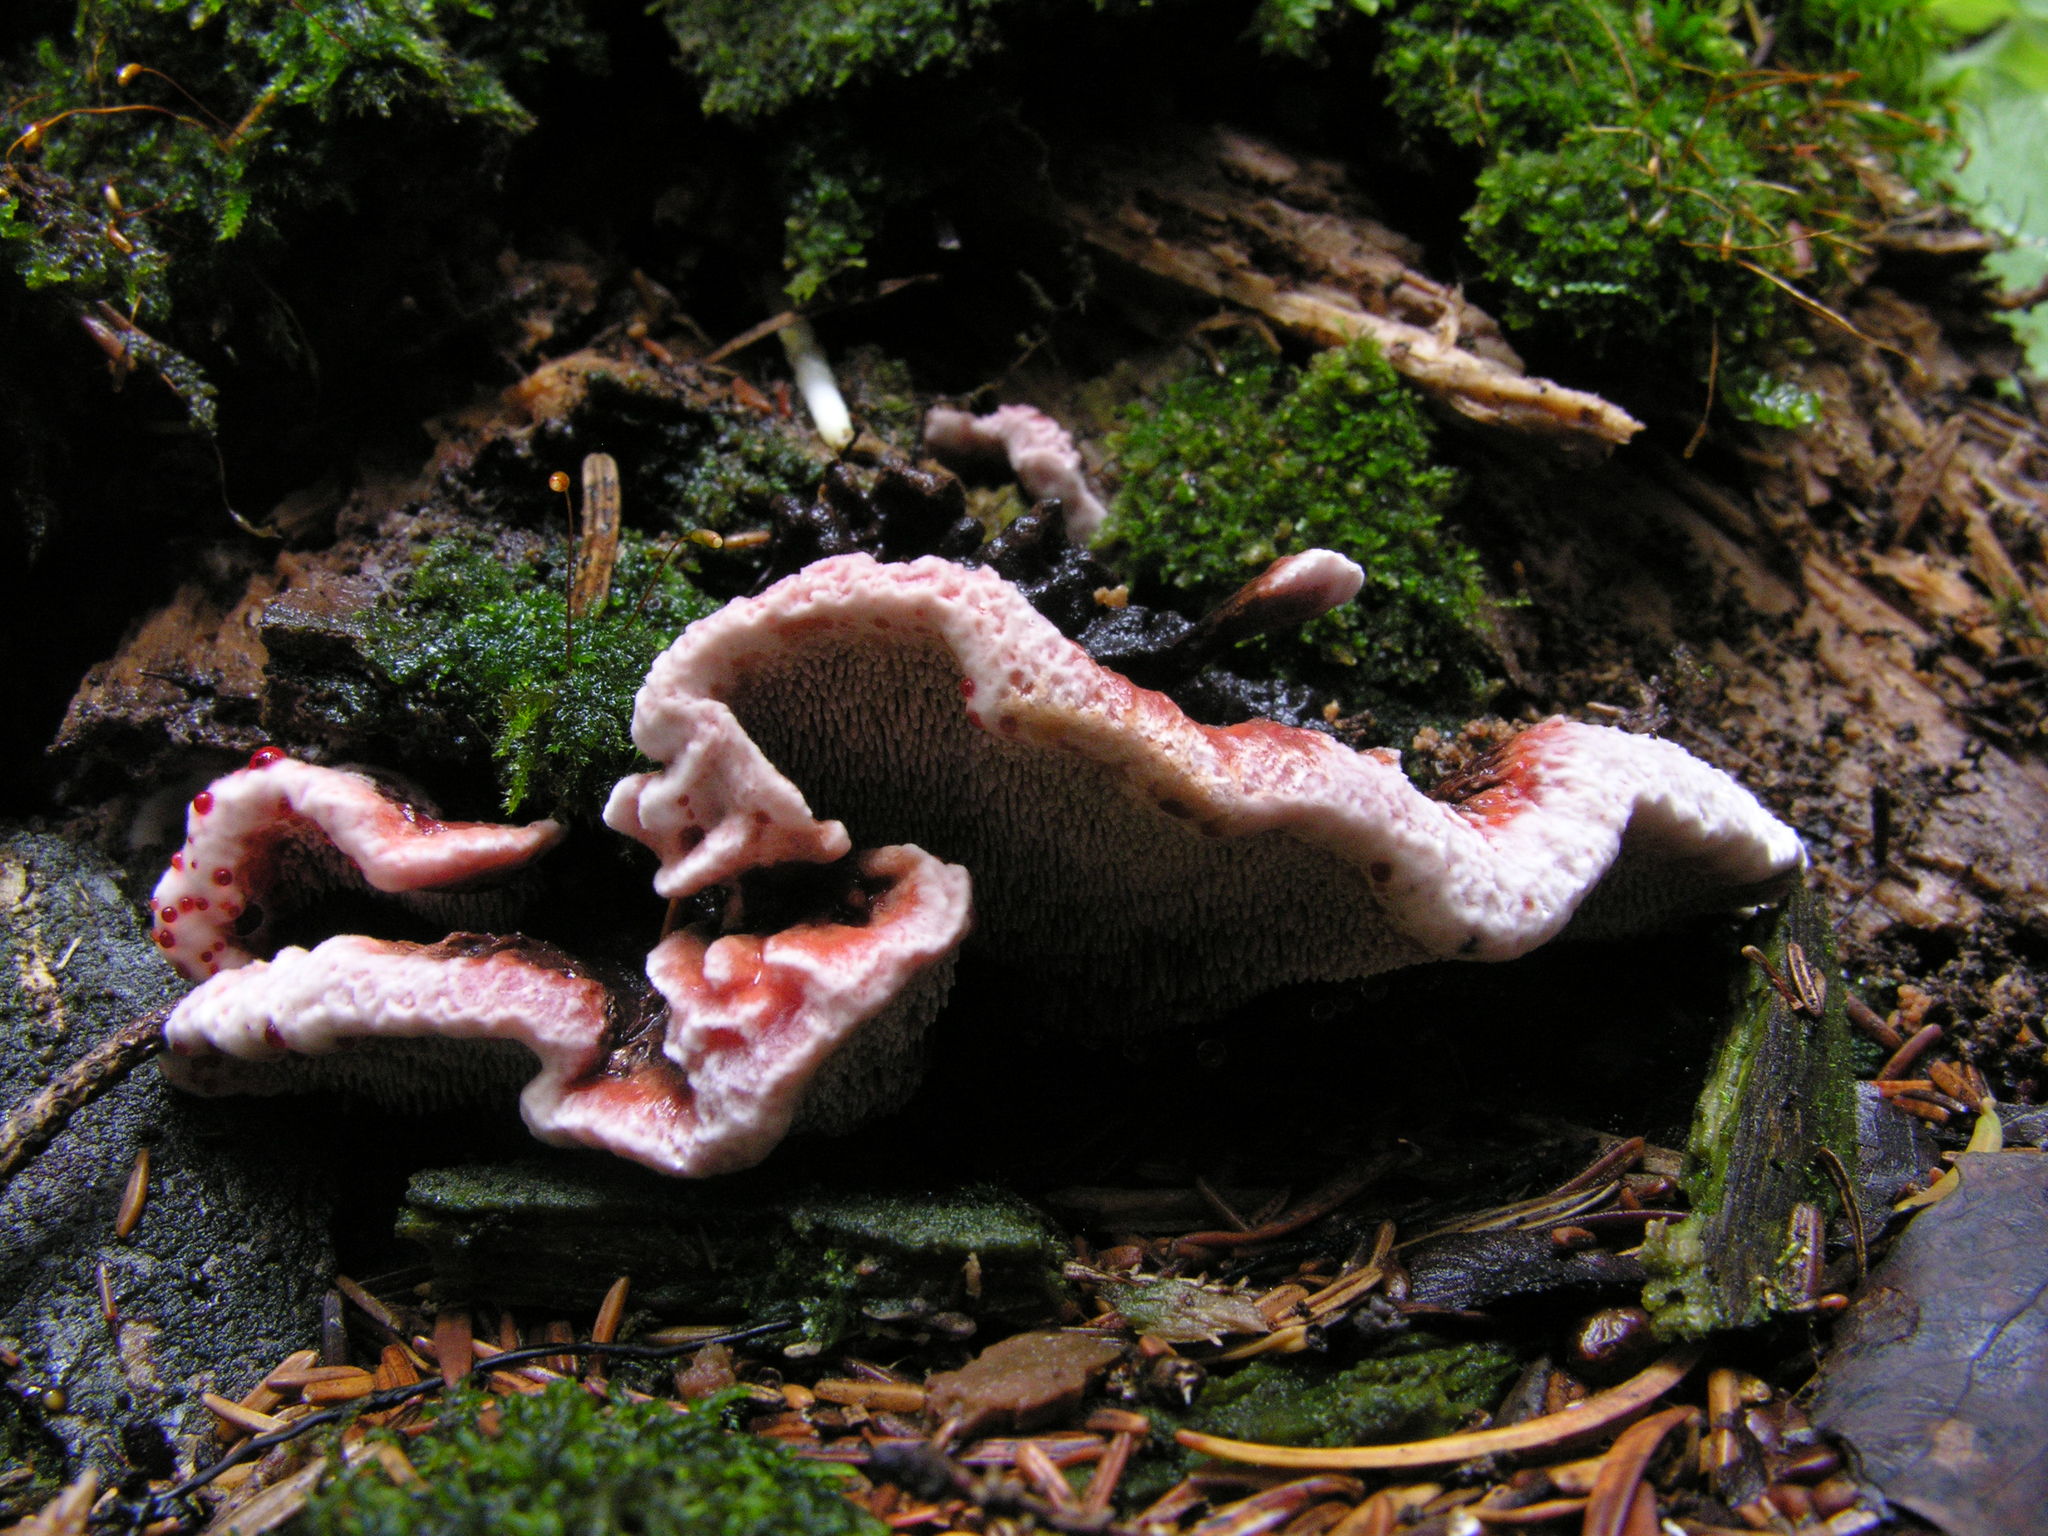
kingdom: Fungi
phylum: Basidiomycota
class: Agaricomycetes
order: Thelephorales
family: Bankeraceae
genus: Hydnellum
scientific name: Hydnellum peckii
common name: Devil's tooth
